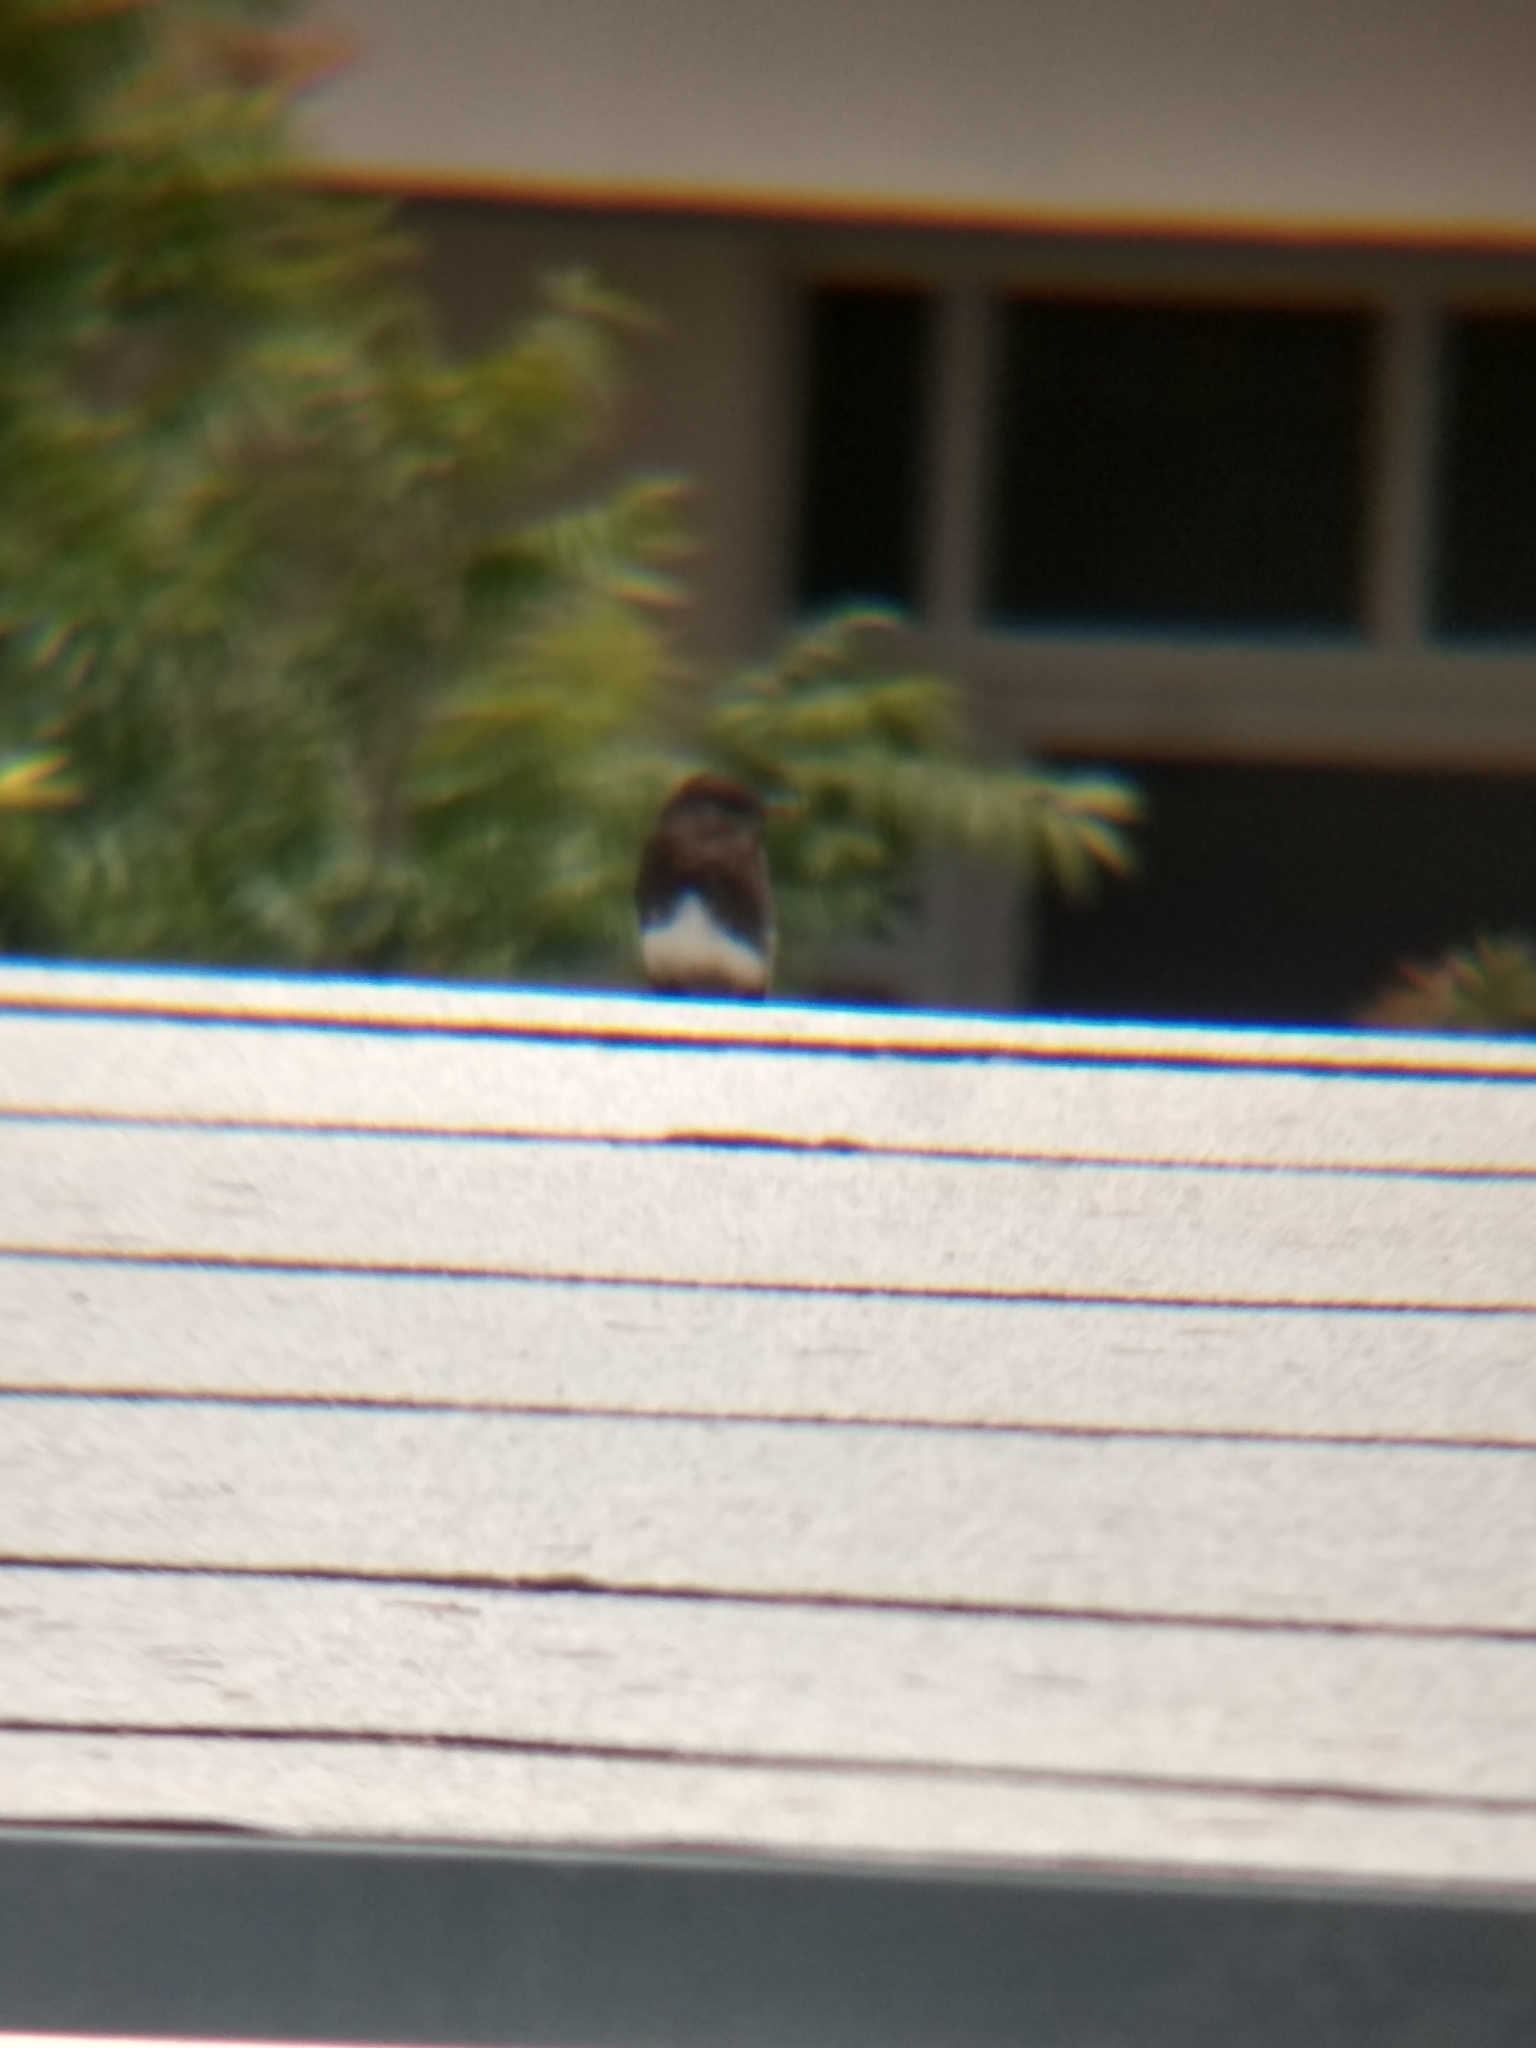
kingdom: Animalia
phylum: Chordata
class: Aves
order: Passeriformes
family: Tyrannidae
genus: Sayornis
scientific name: Sayornis nigricans
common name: Black phoebe
